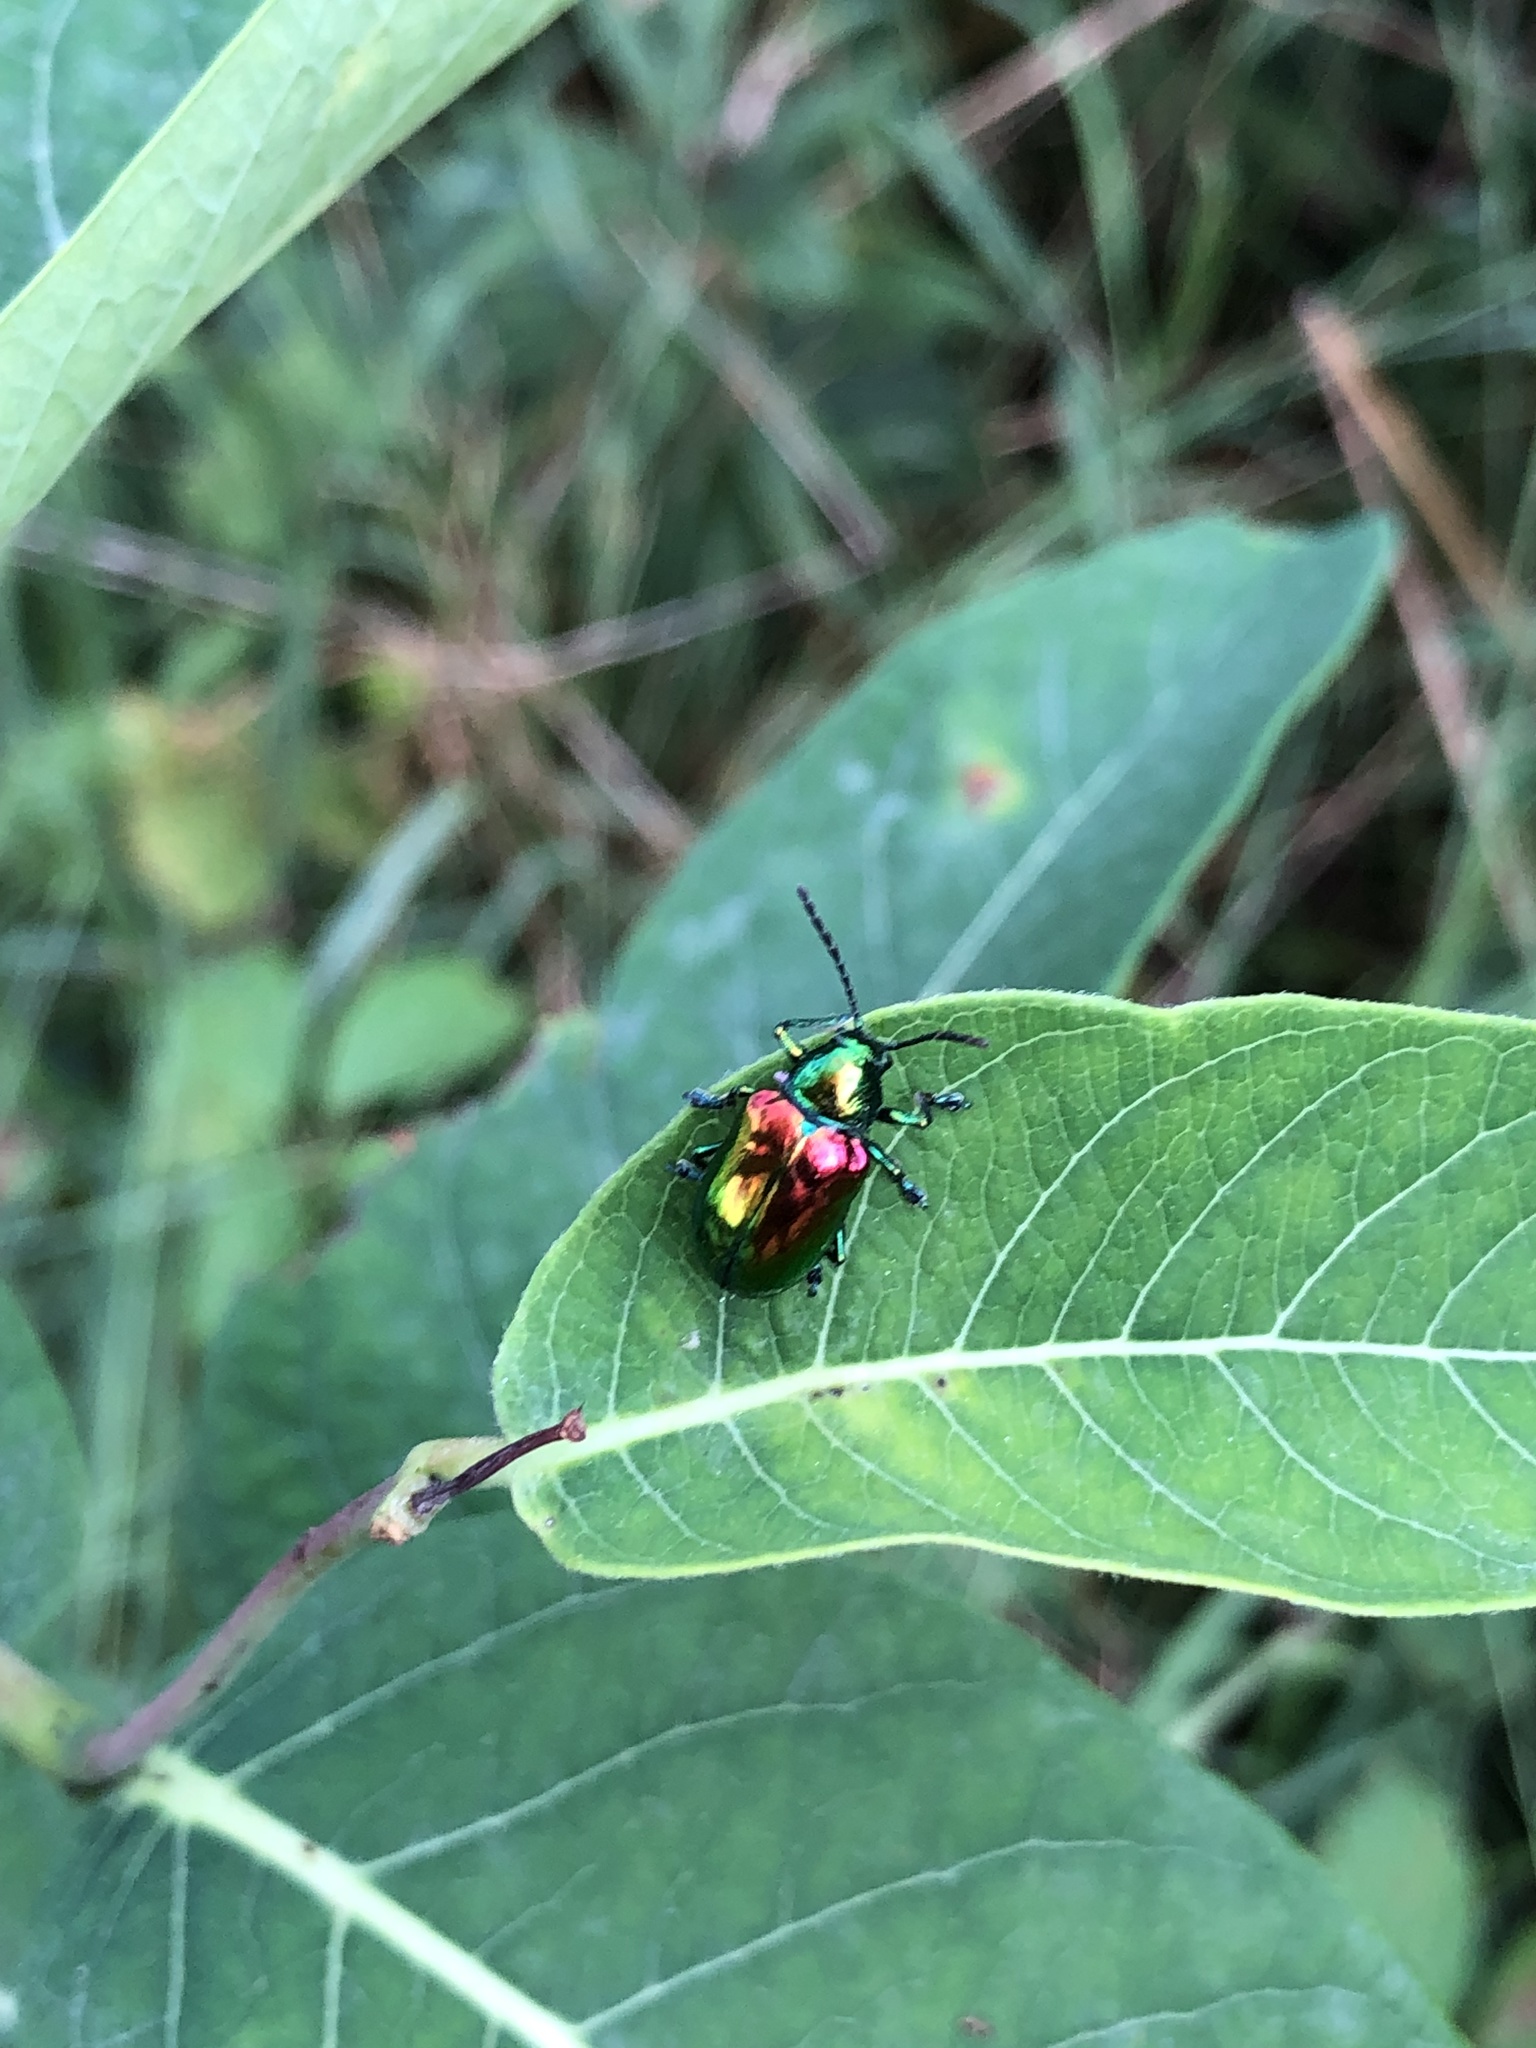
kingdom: Animalia
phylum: Arthropoda
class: Insecta
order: Coleoptera
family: Chrysomelidae
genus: Chrysochus
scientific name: Chrysochus auratus
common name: Dogbane leaf beetle
